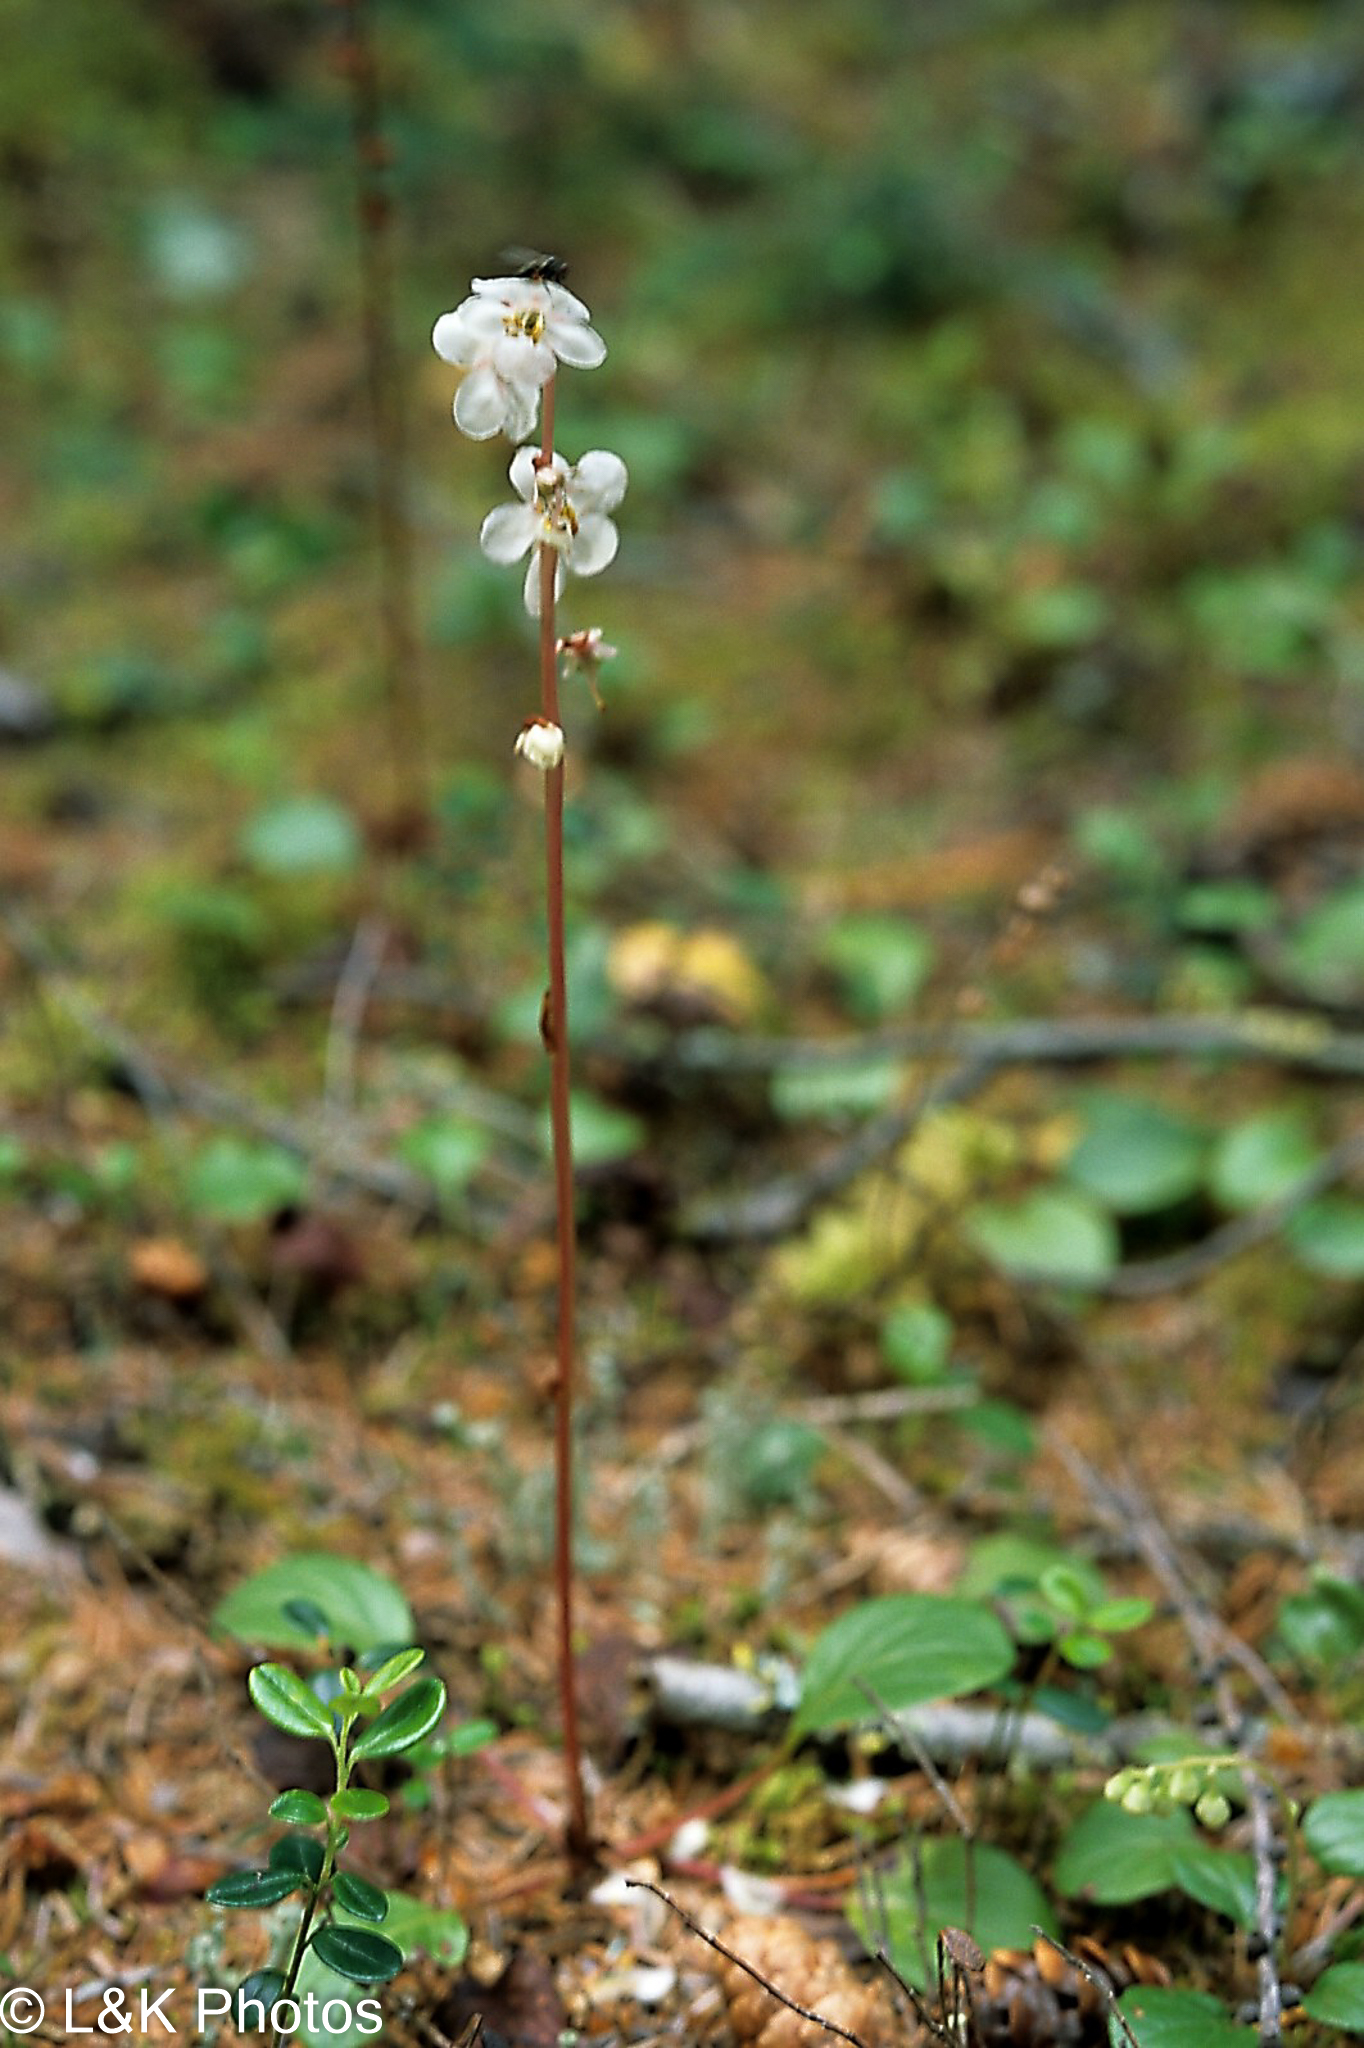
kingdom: Plantae
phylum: Tracheophyta
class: Magnoliopsida
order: Ericales
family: Ericaceae
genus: Pyrola
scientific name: Pyrola grandiflora
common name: Arctic pyrola
